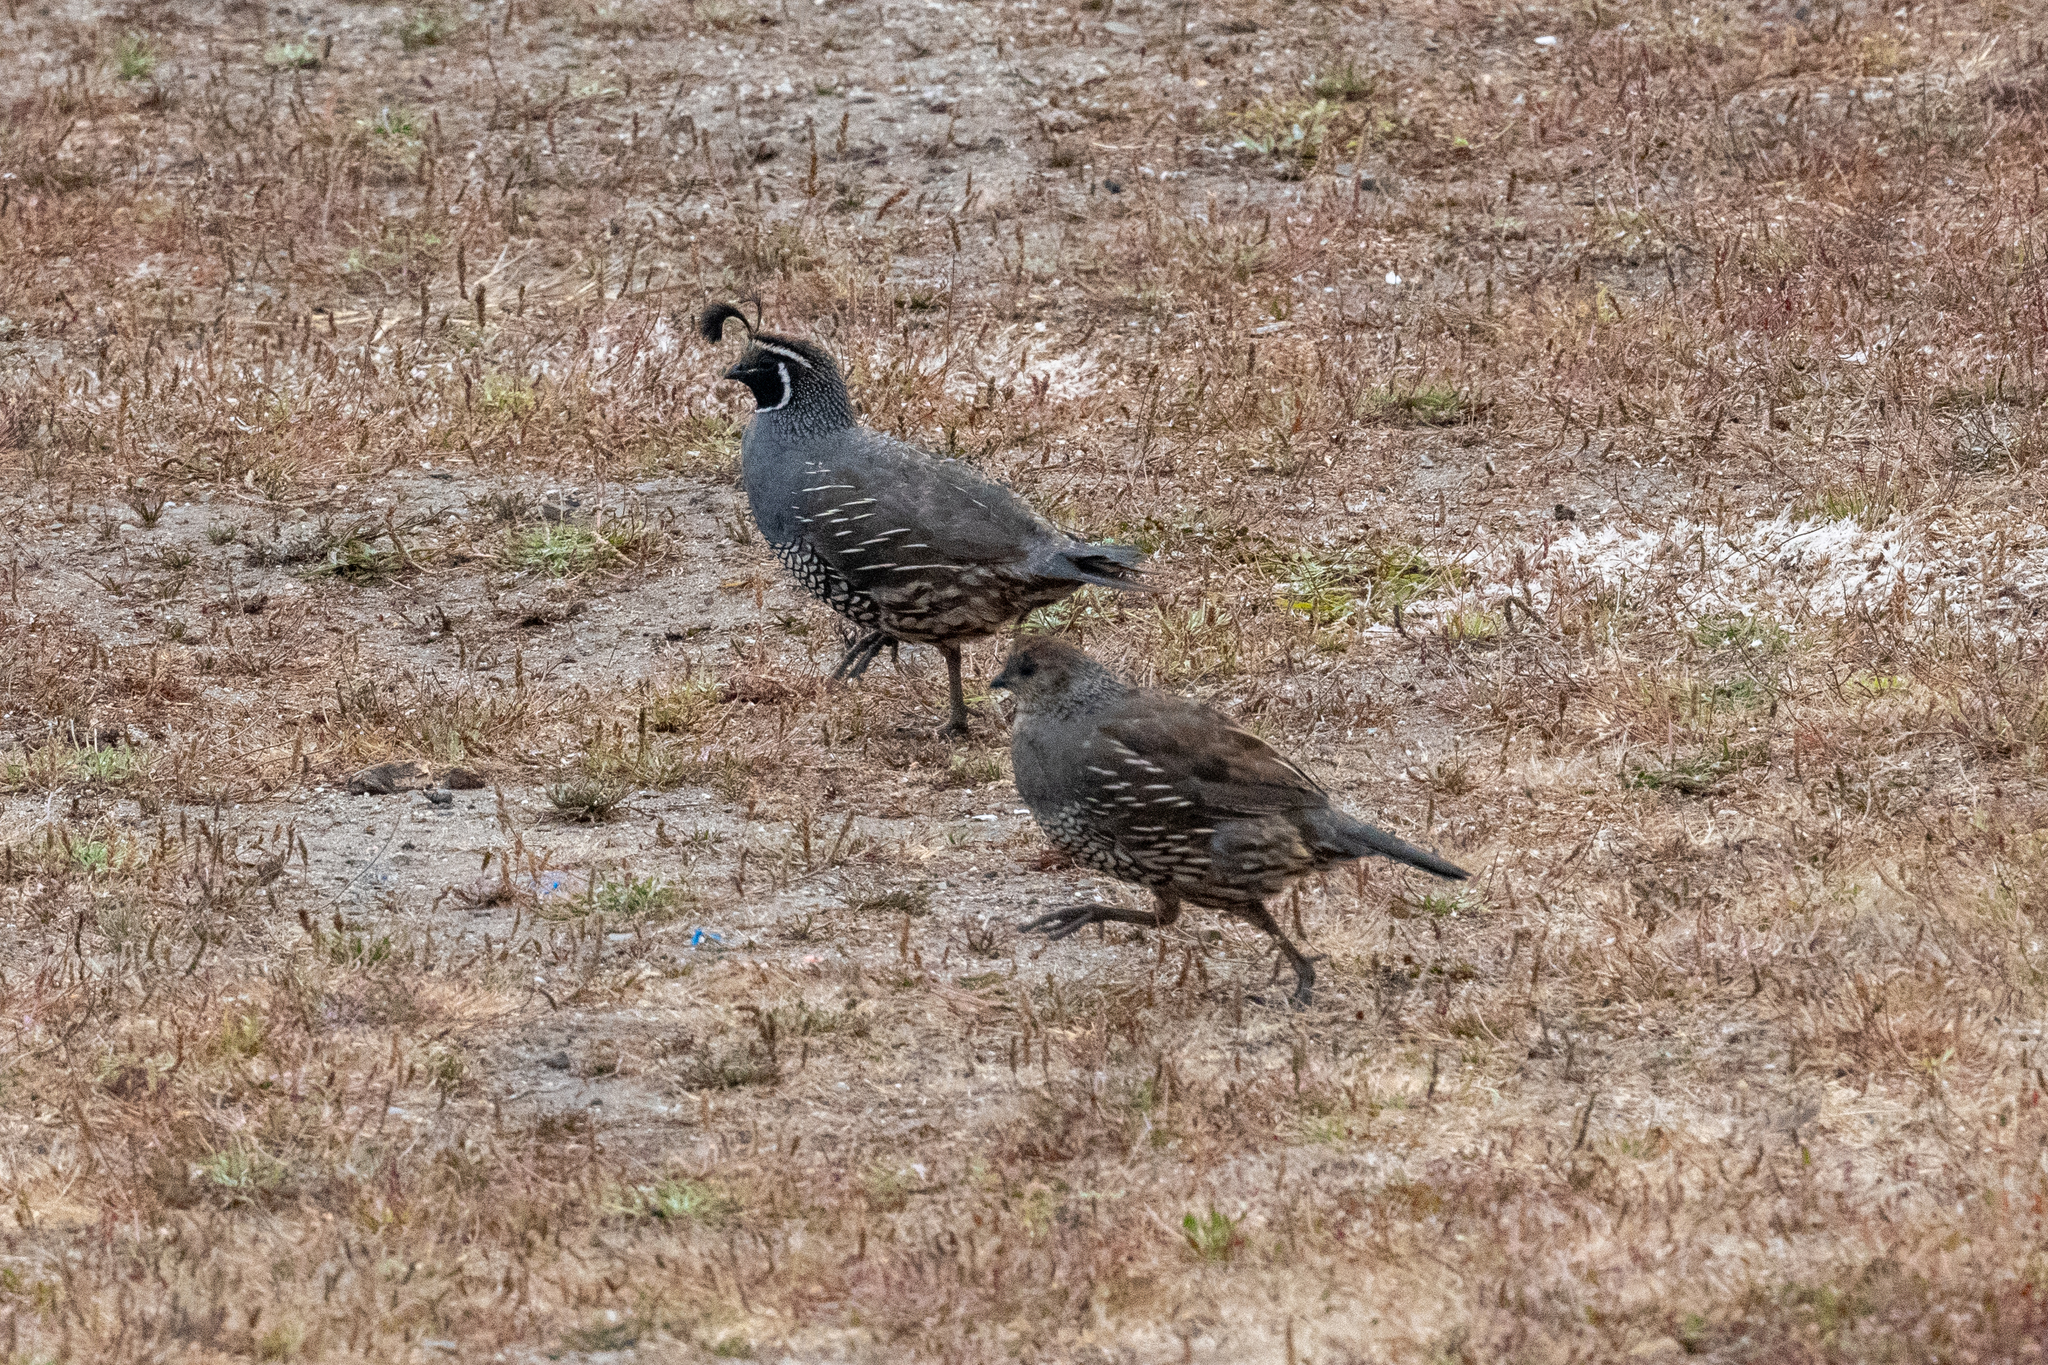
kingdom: Animalia
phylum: Chordata
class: Aves
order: Galliformes
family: Odontophoridae
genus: Callipepla
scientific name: Callipepla californica
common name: California quail
